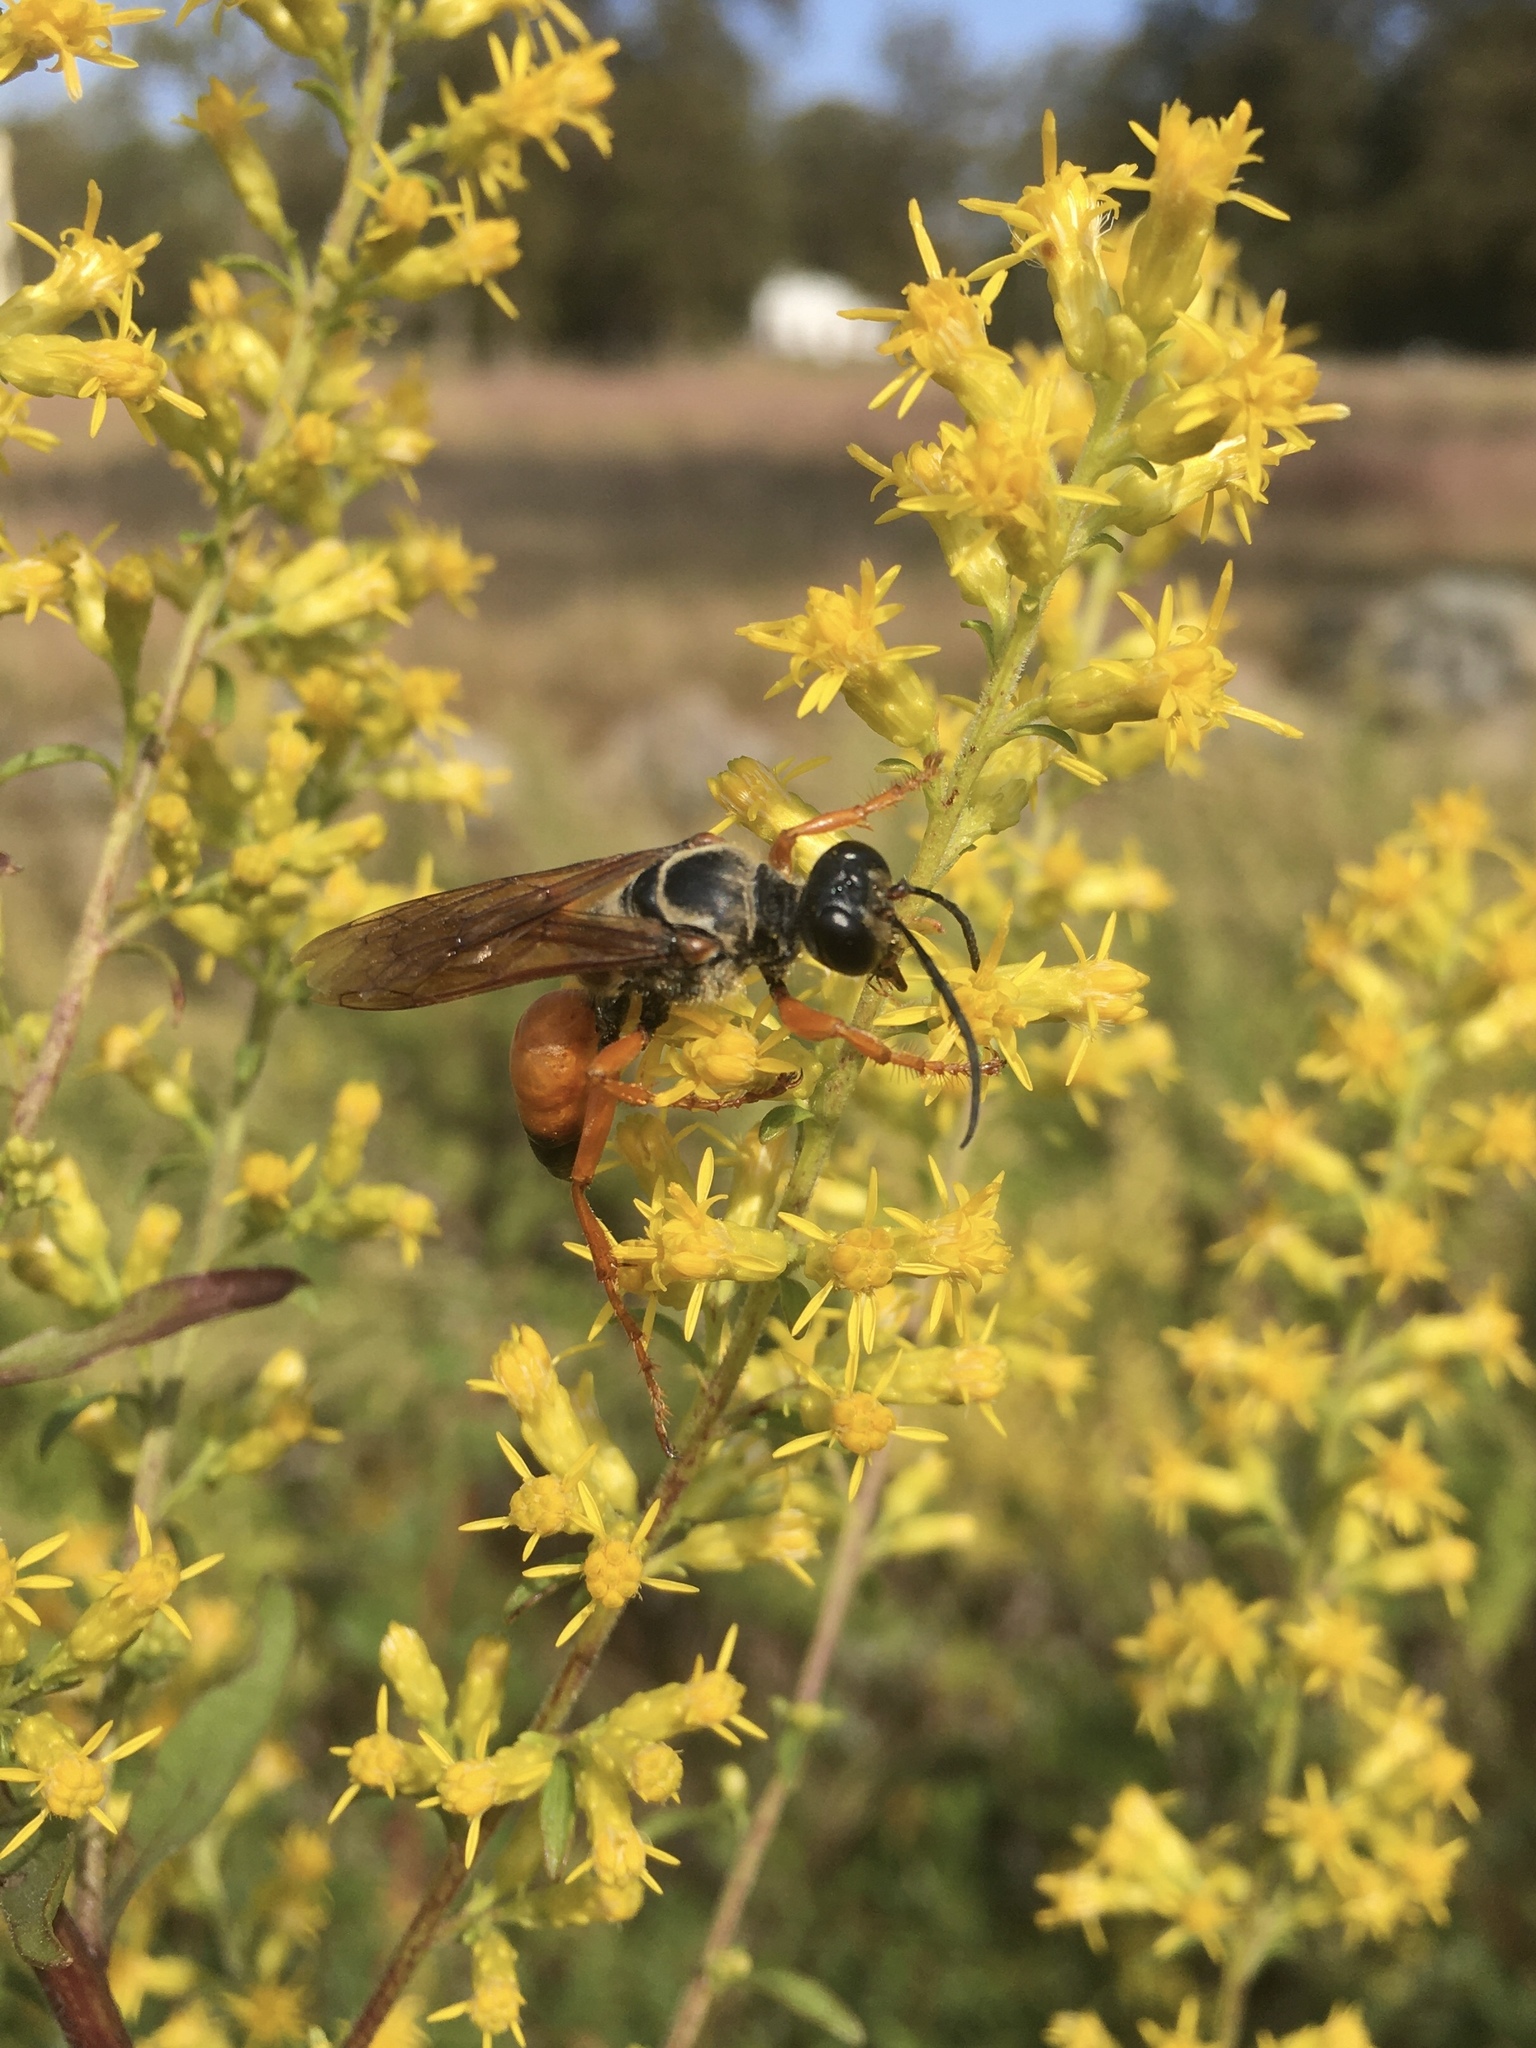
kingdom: Animalia
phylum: Arthropoda
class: Insecta
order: Hymenoptera
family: Sphecidae
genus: Sphex
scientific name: Sphex ichneumoneus
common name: Great golden digger wasp
